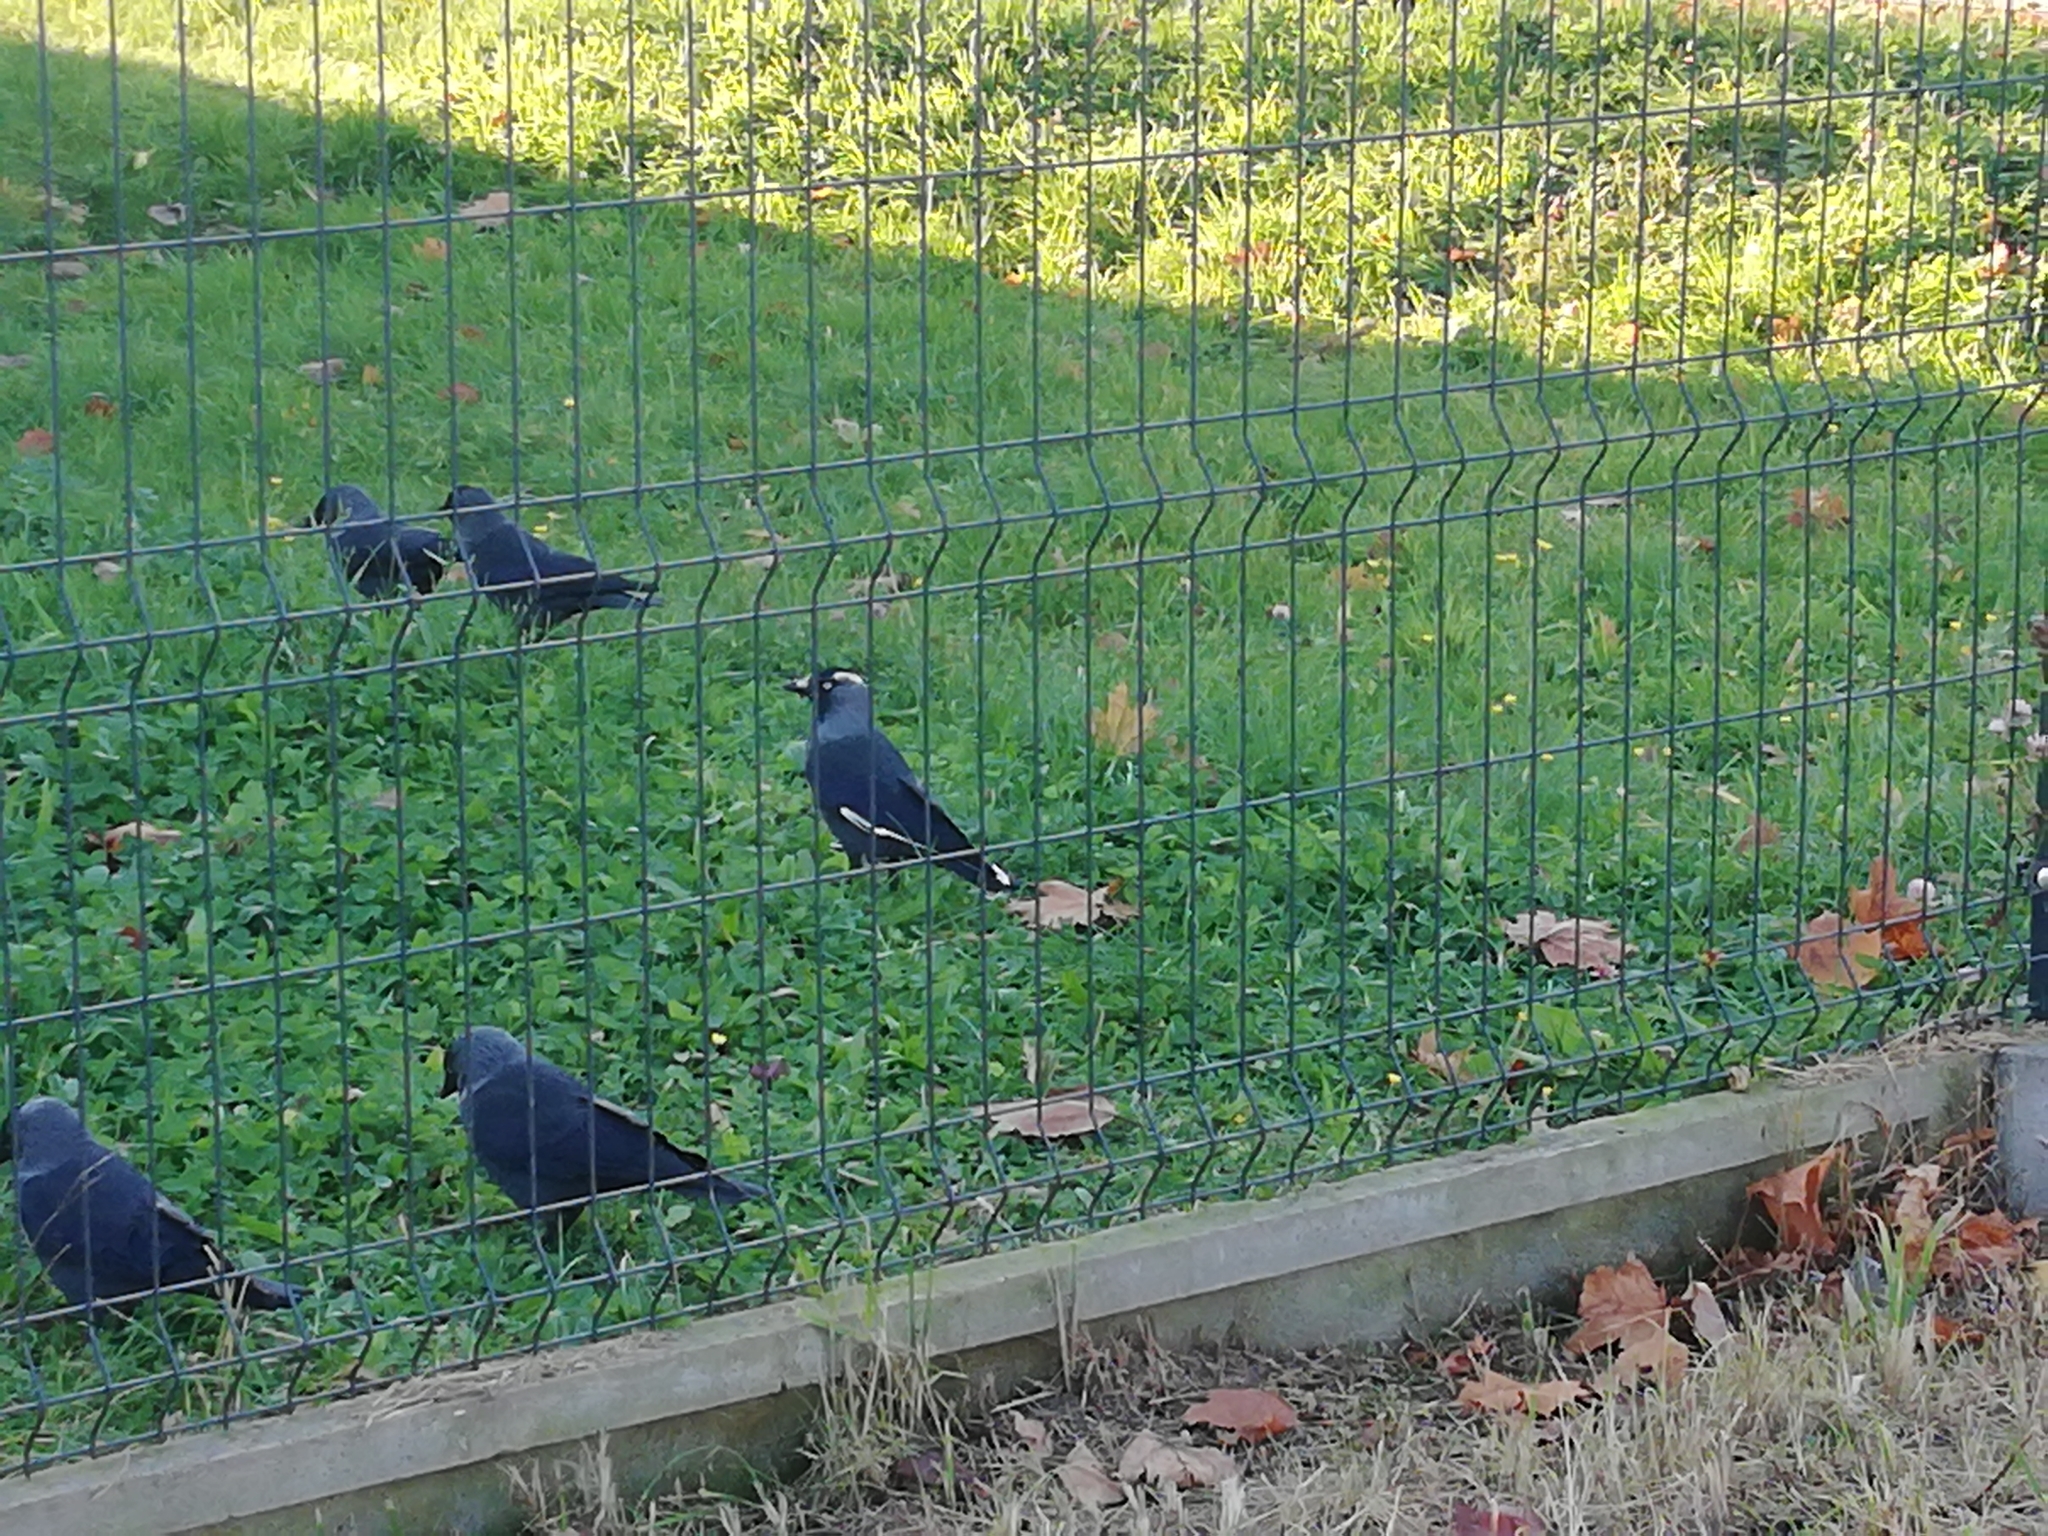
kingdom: Animalia
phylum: Chordata
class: Aves
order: Passeriformes
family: Corvidae
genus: Coloeus
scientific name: Coloeus monedula
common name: Western jackdaw
